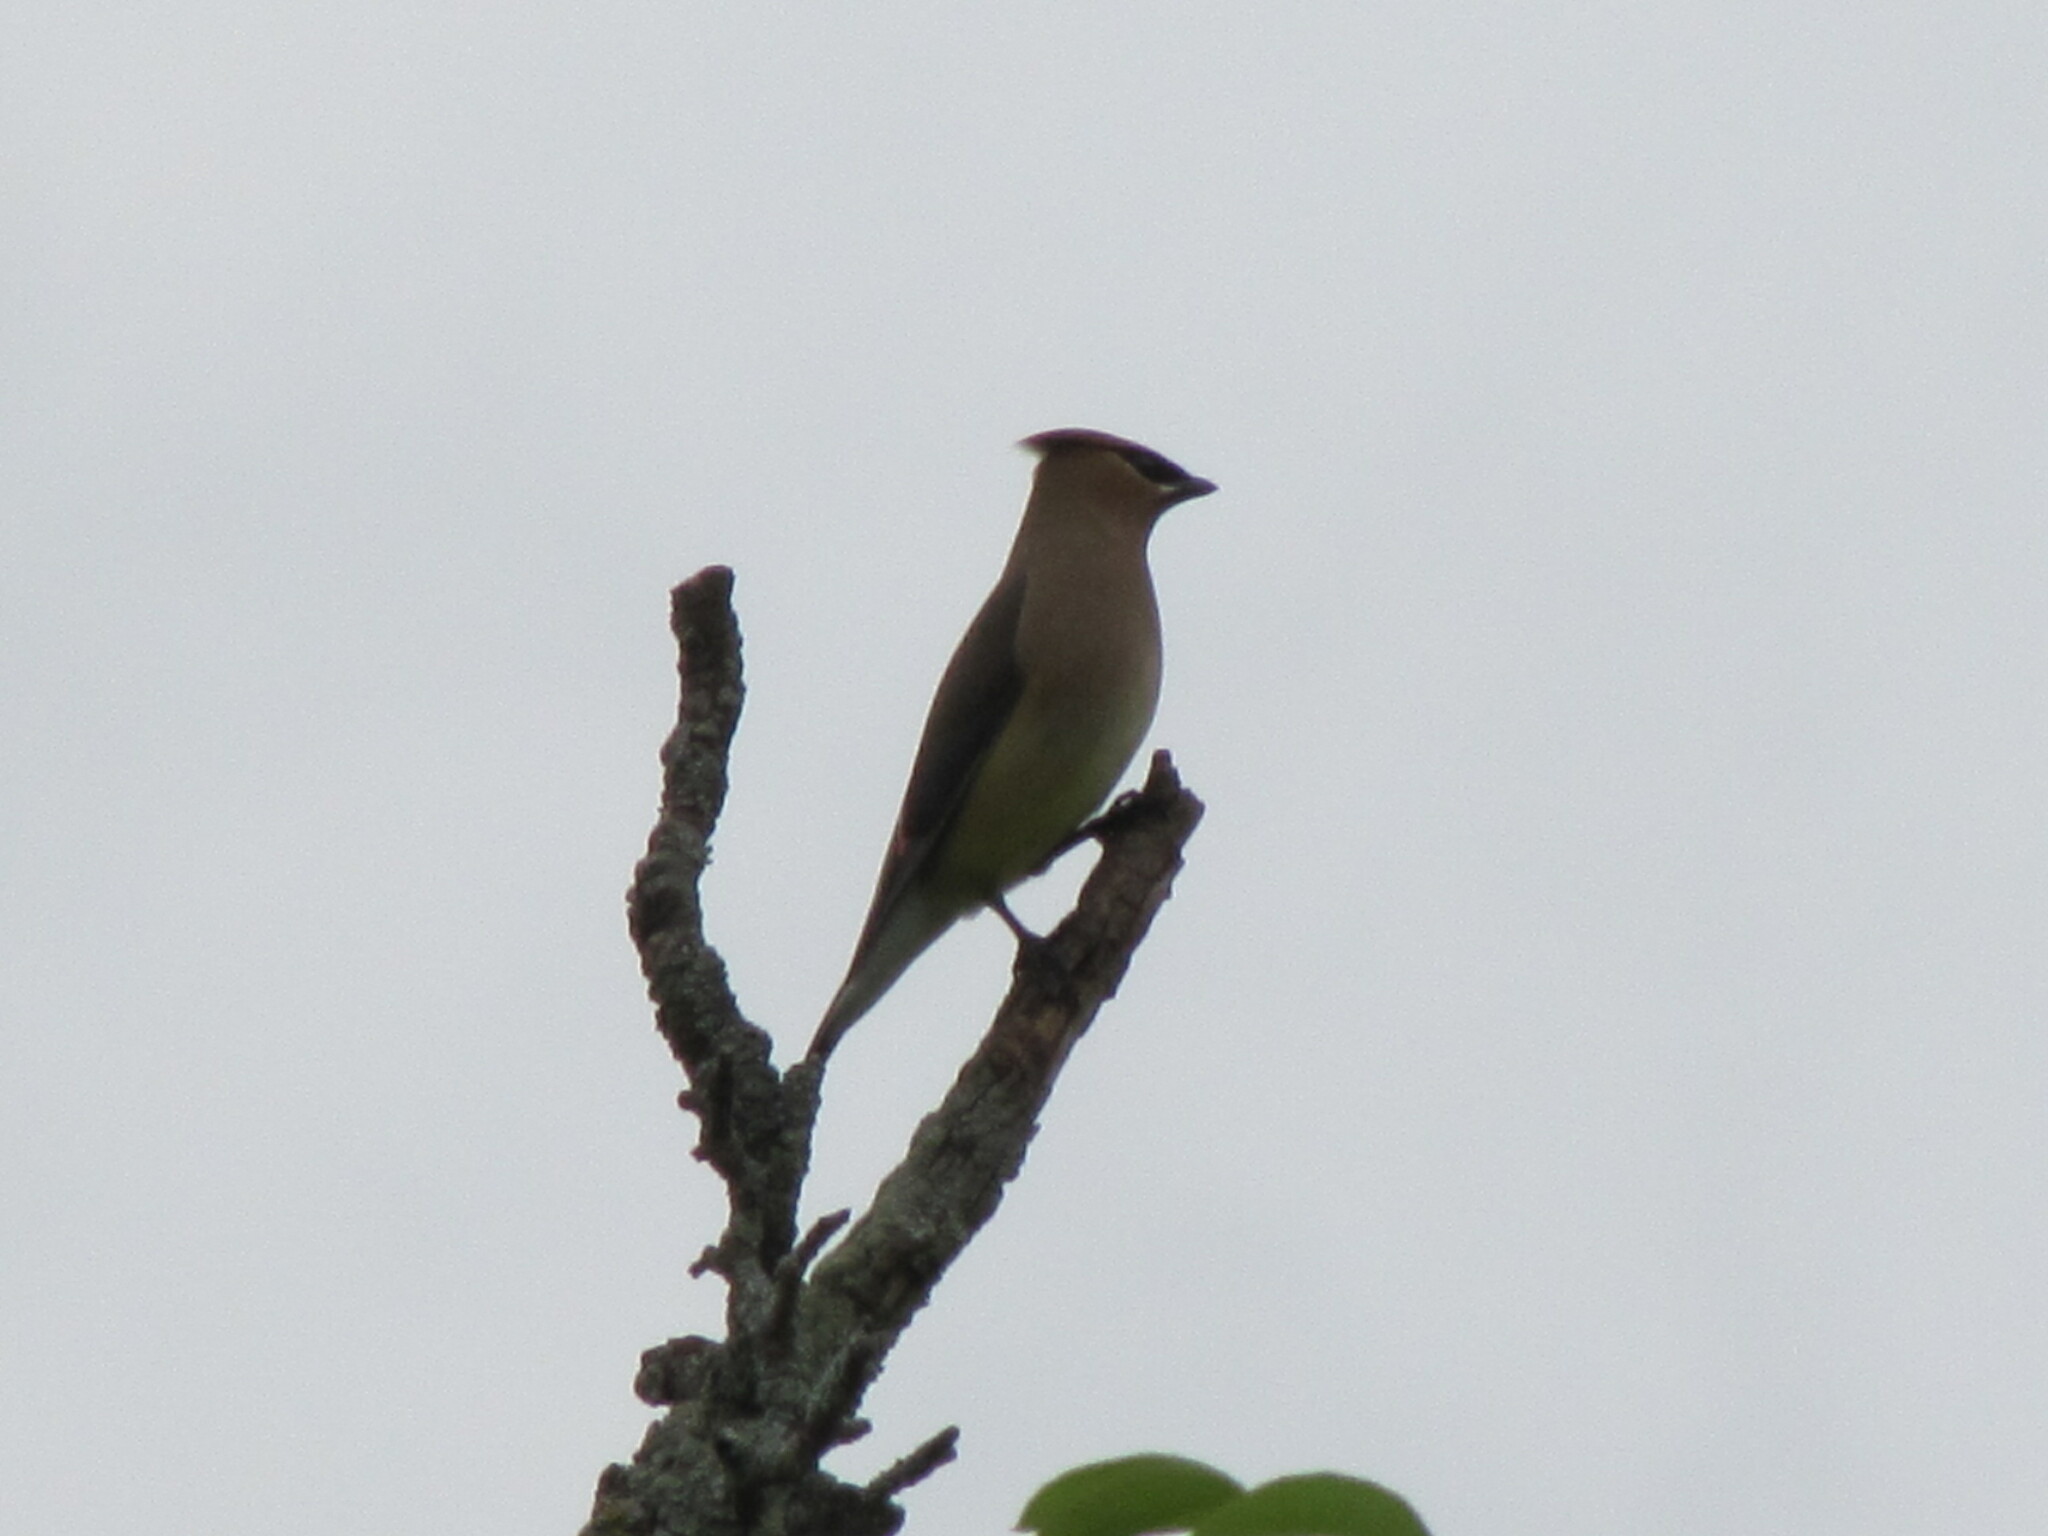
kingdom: Animalia
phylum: Chordata
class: Aves
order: Passeriformes
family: Bombycillidae
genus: Bombycilla
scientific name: Bombycilla cedrorum
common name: Cedar waxwing
